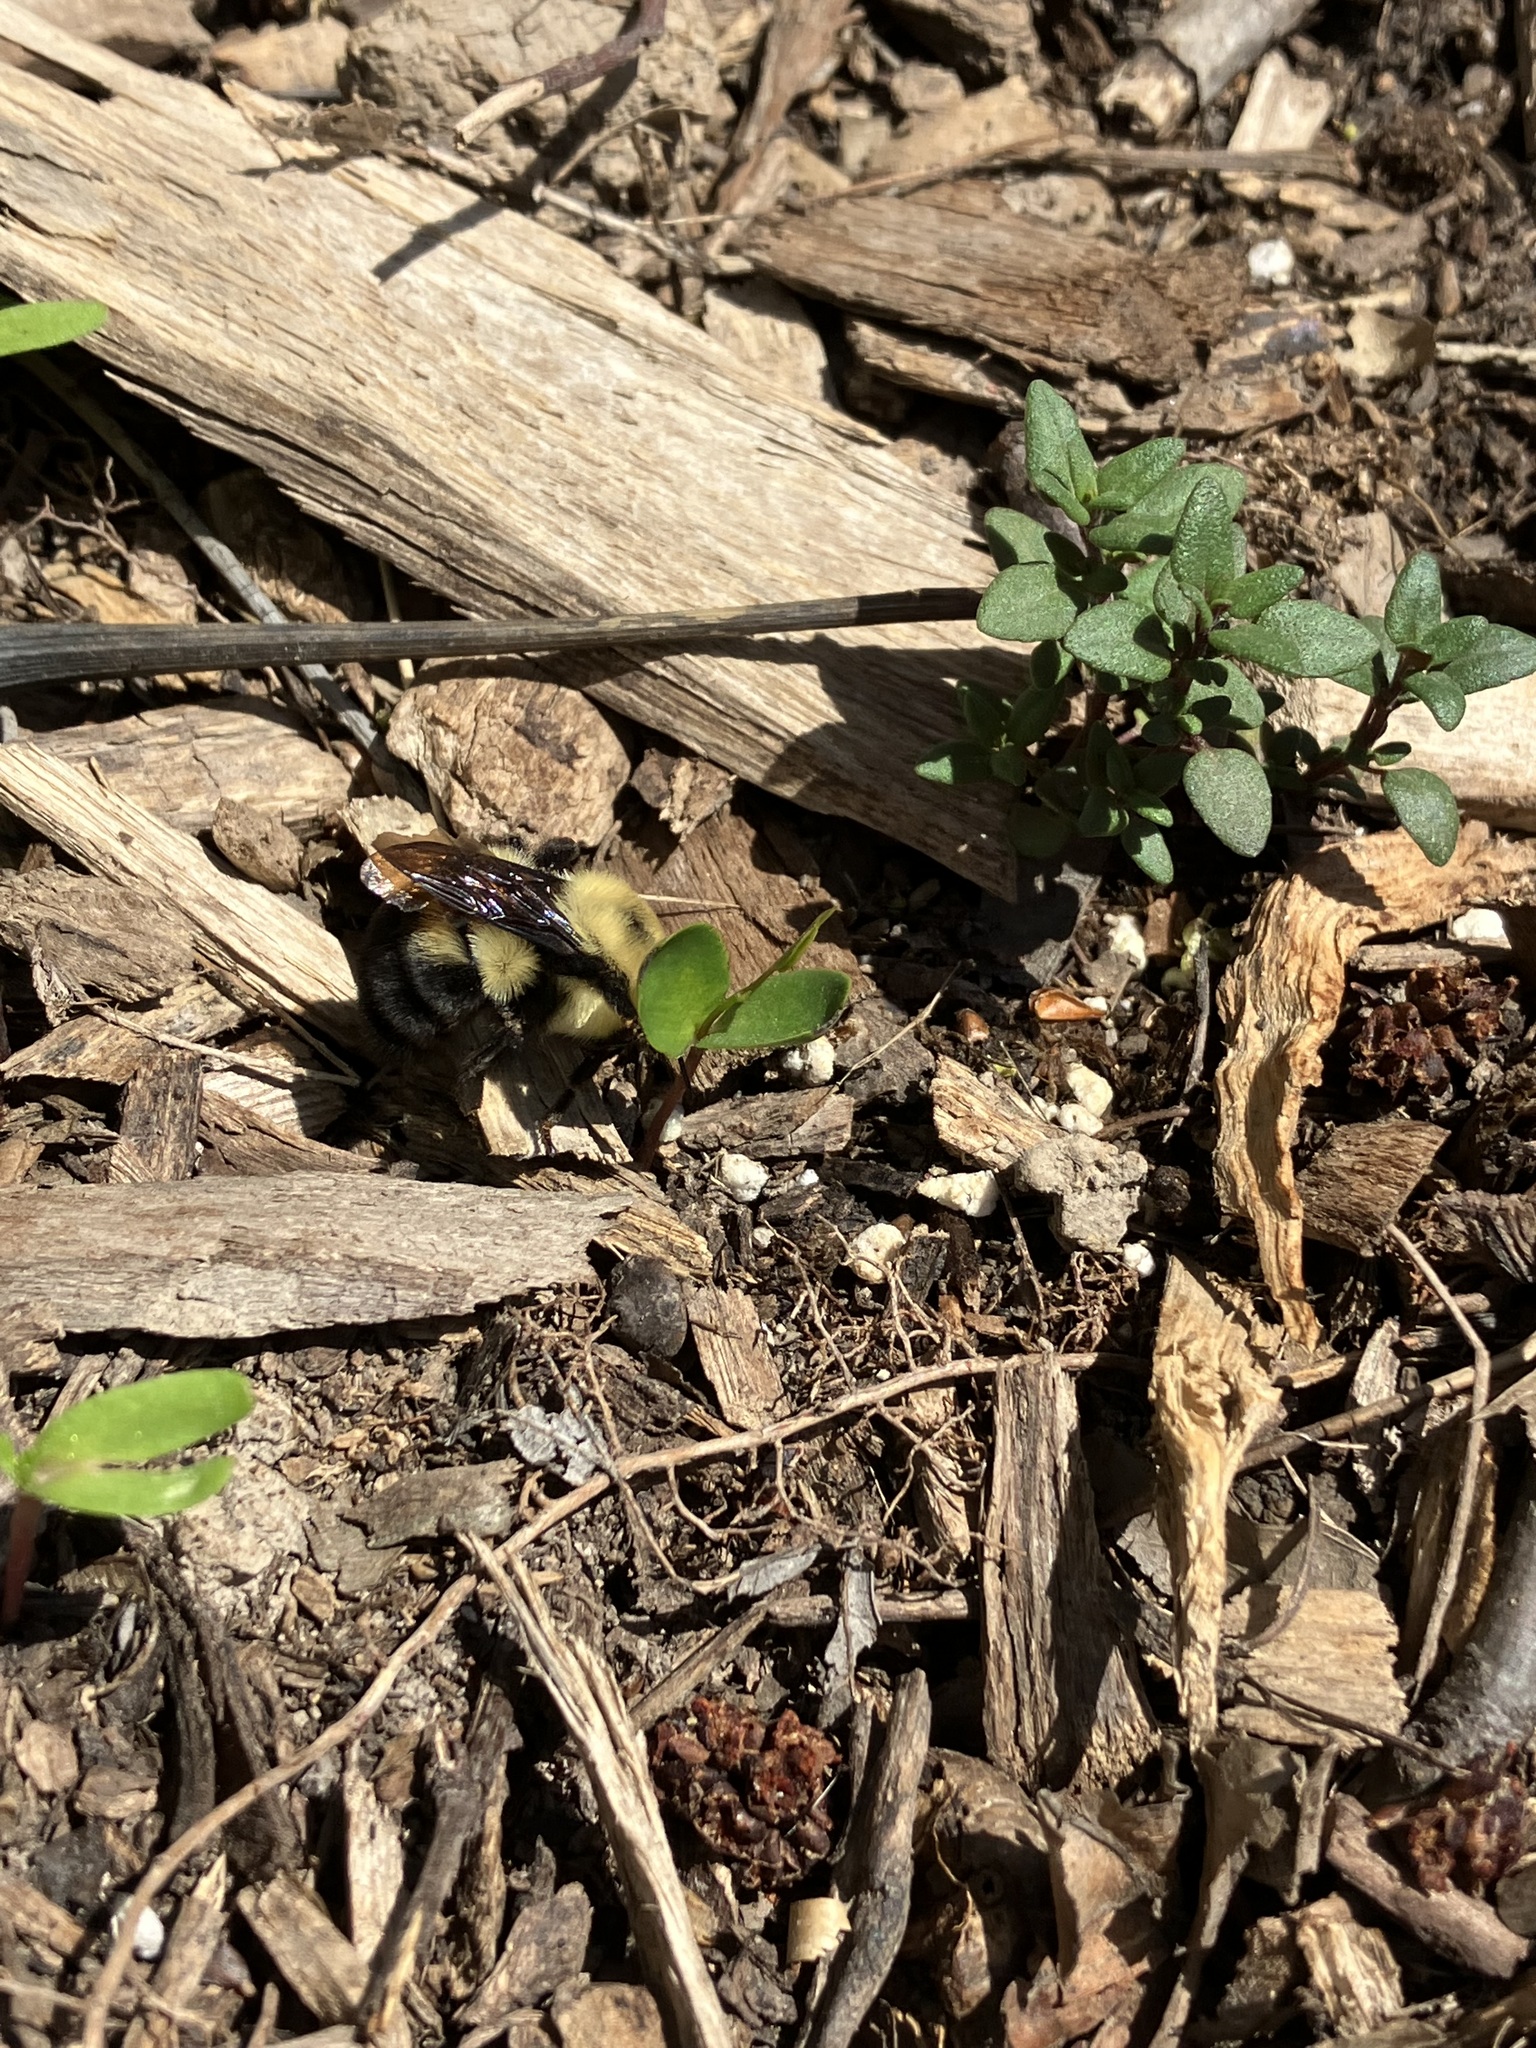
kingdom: Animalia
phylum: Arthropoda
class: Insecta
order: Hymenoptera
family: Apidae
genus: Bombus
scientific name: Bombus bimaculatus
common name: Two-spotted bumble bee
